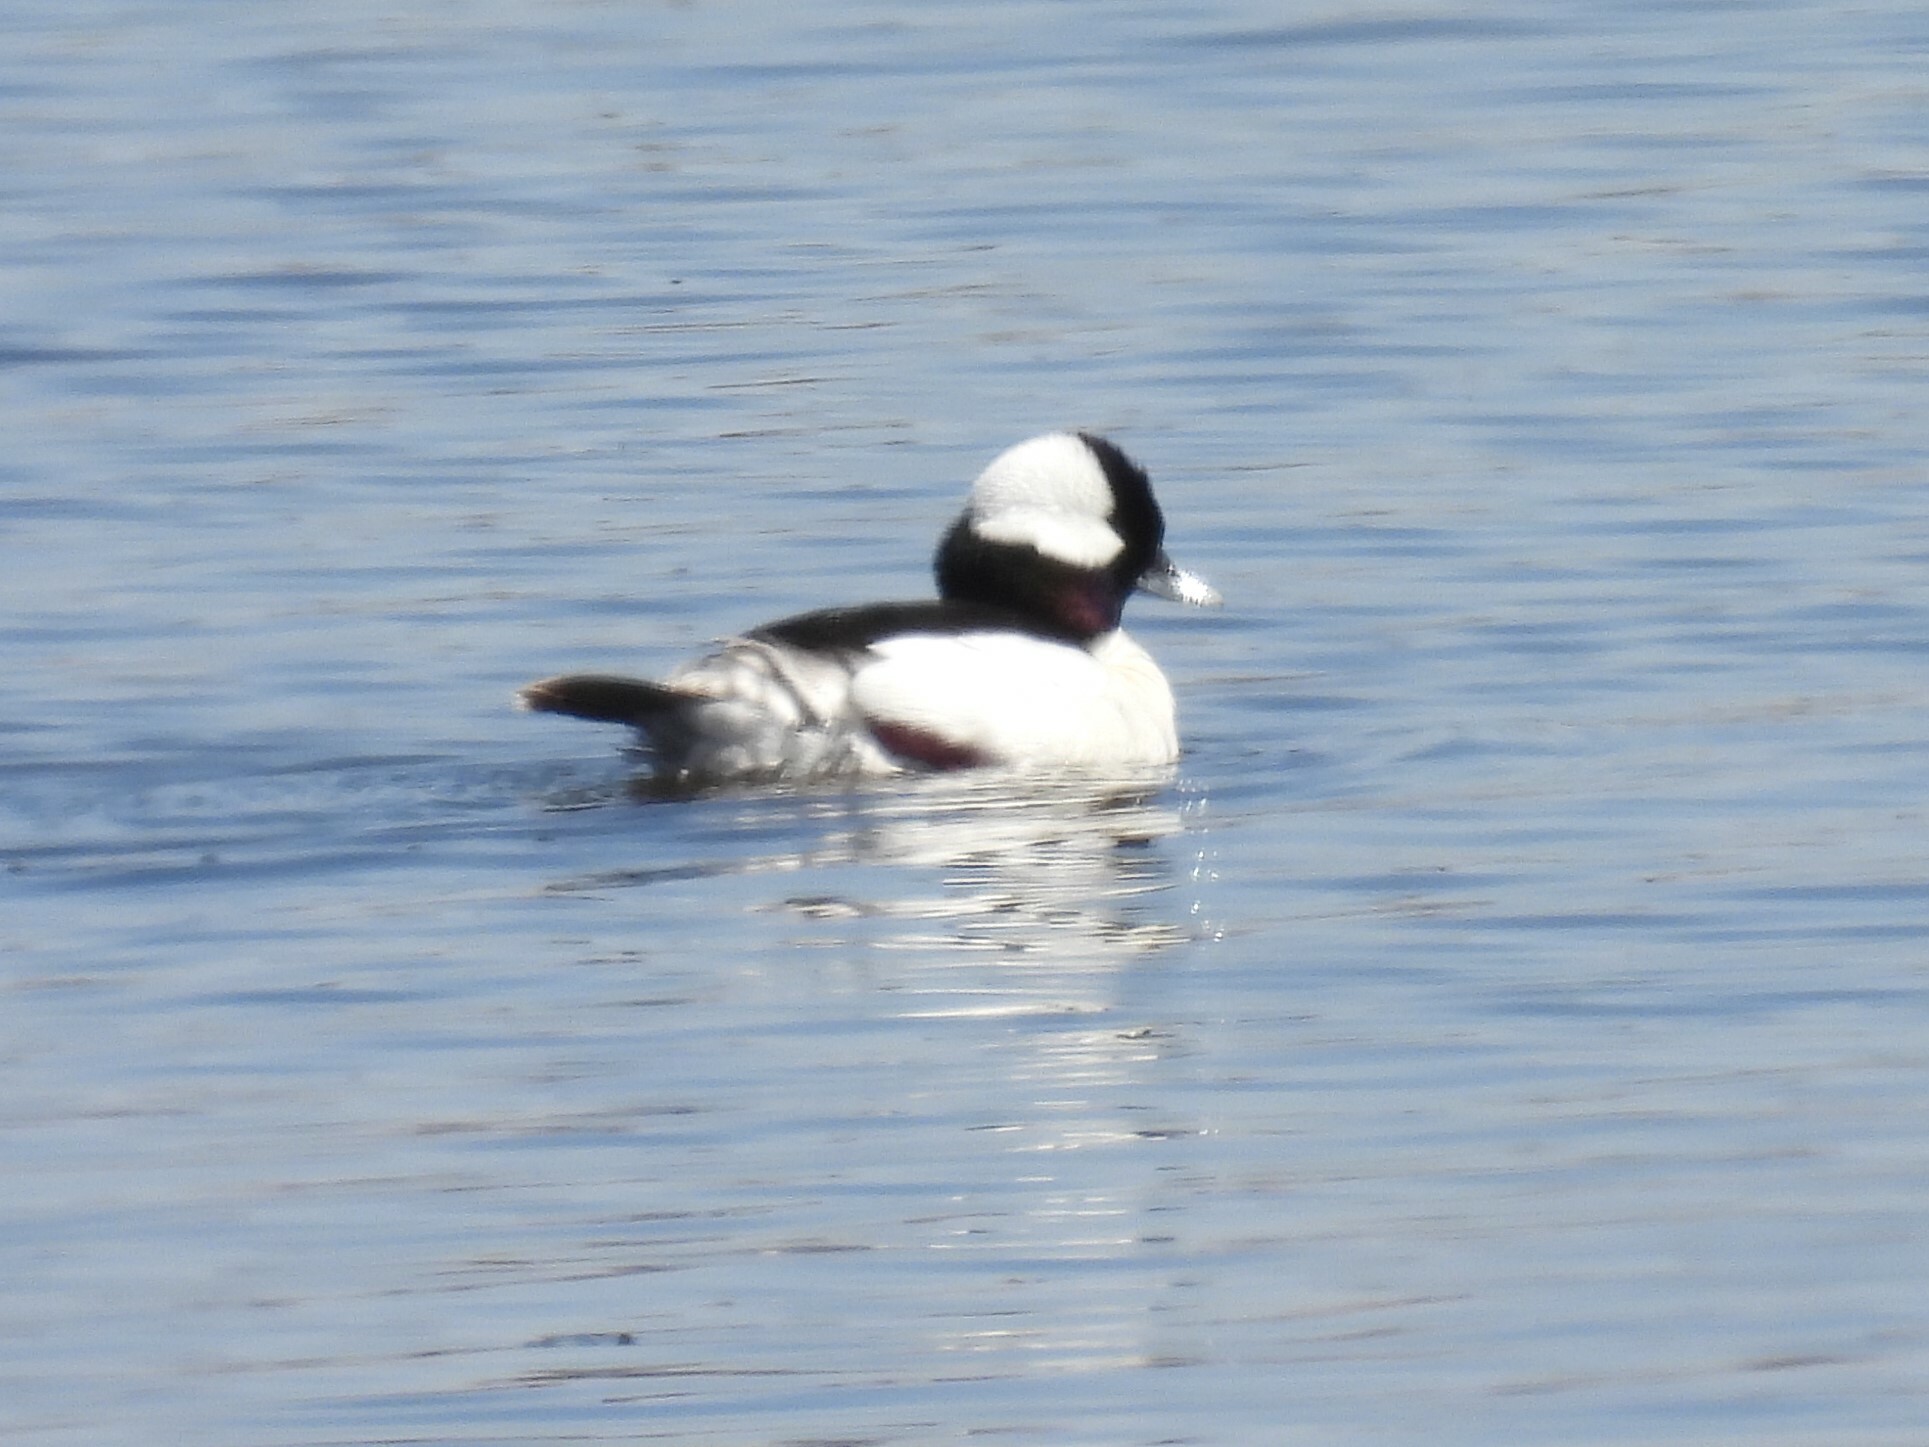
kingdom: Animalia
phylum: Chordata
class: Aves
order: Anseriformes
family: Anatidae
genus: Bucephala
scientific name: Bucephala albeola
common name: Bufflehead
